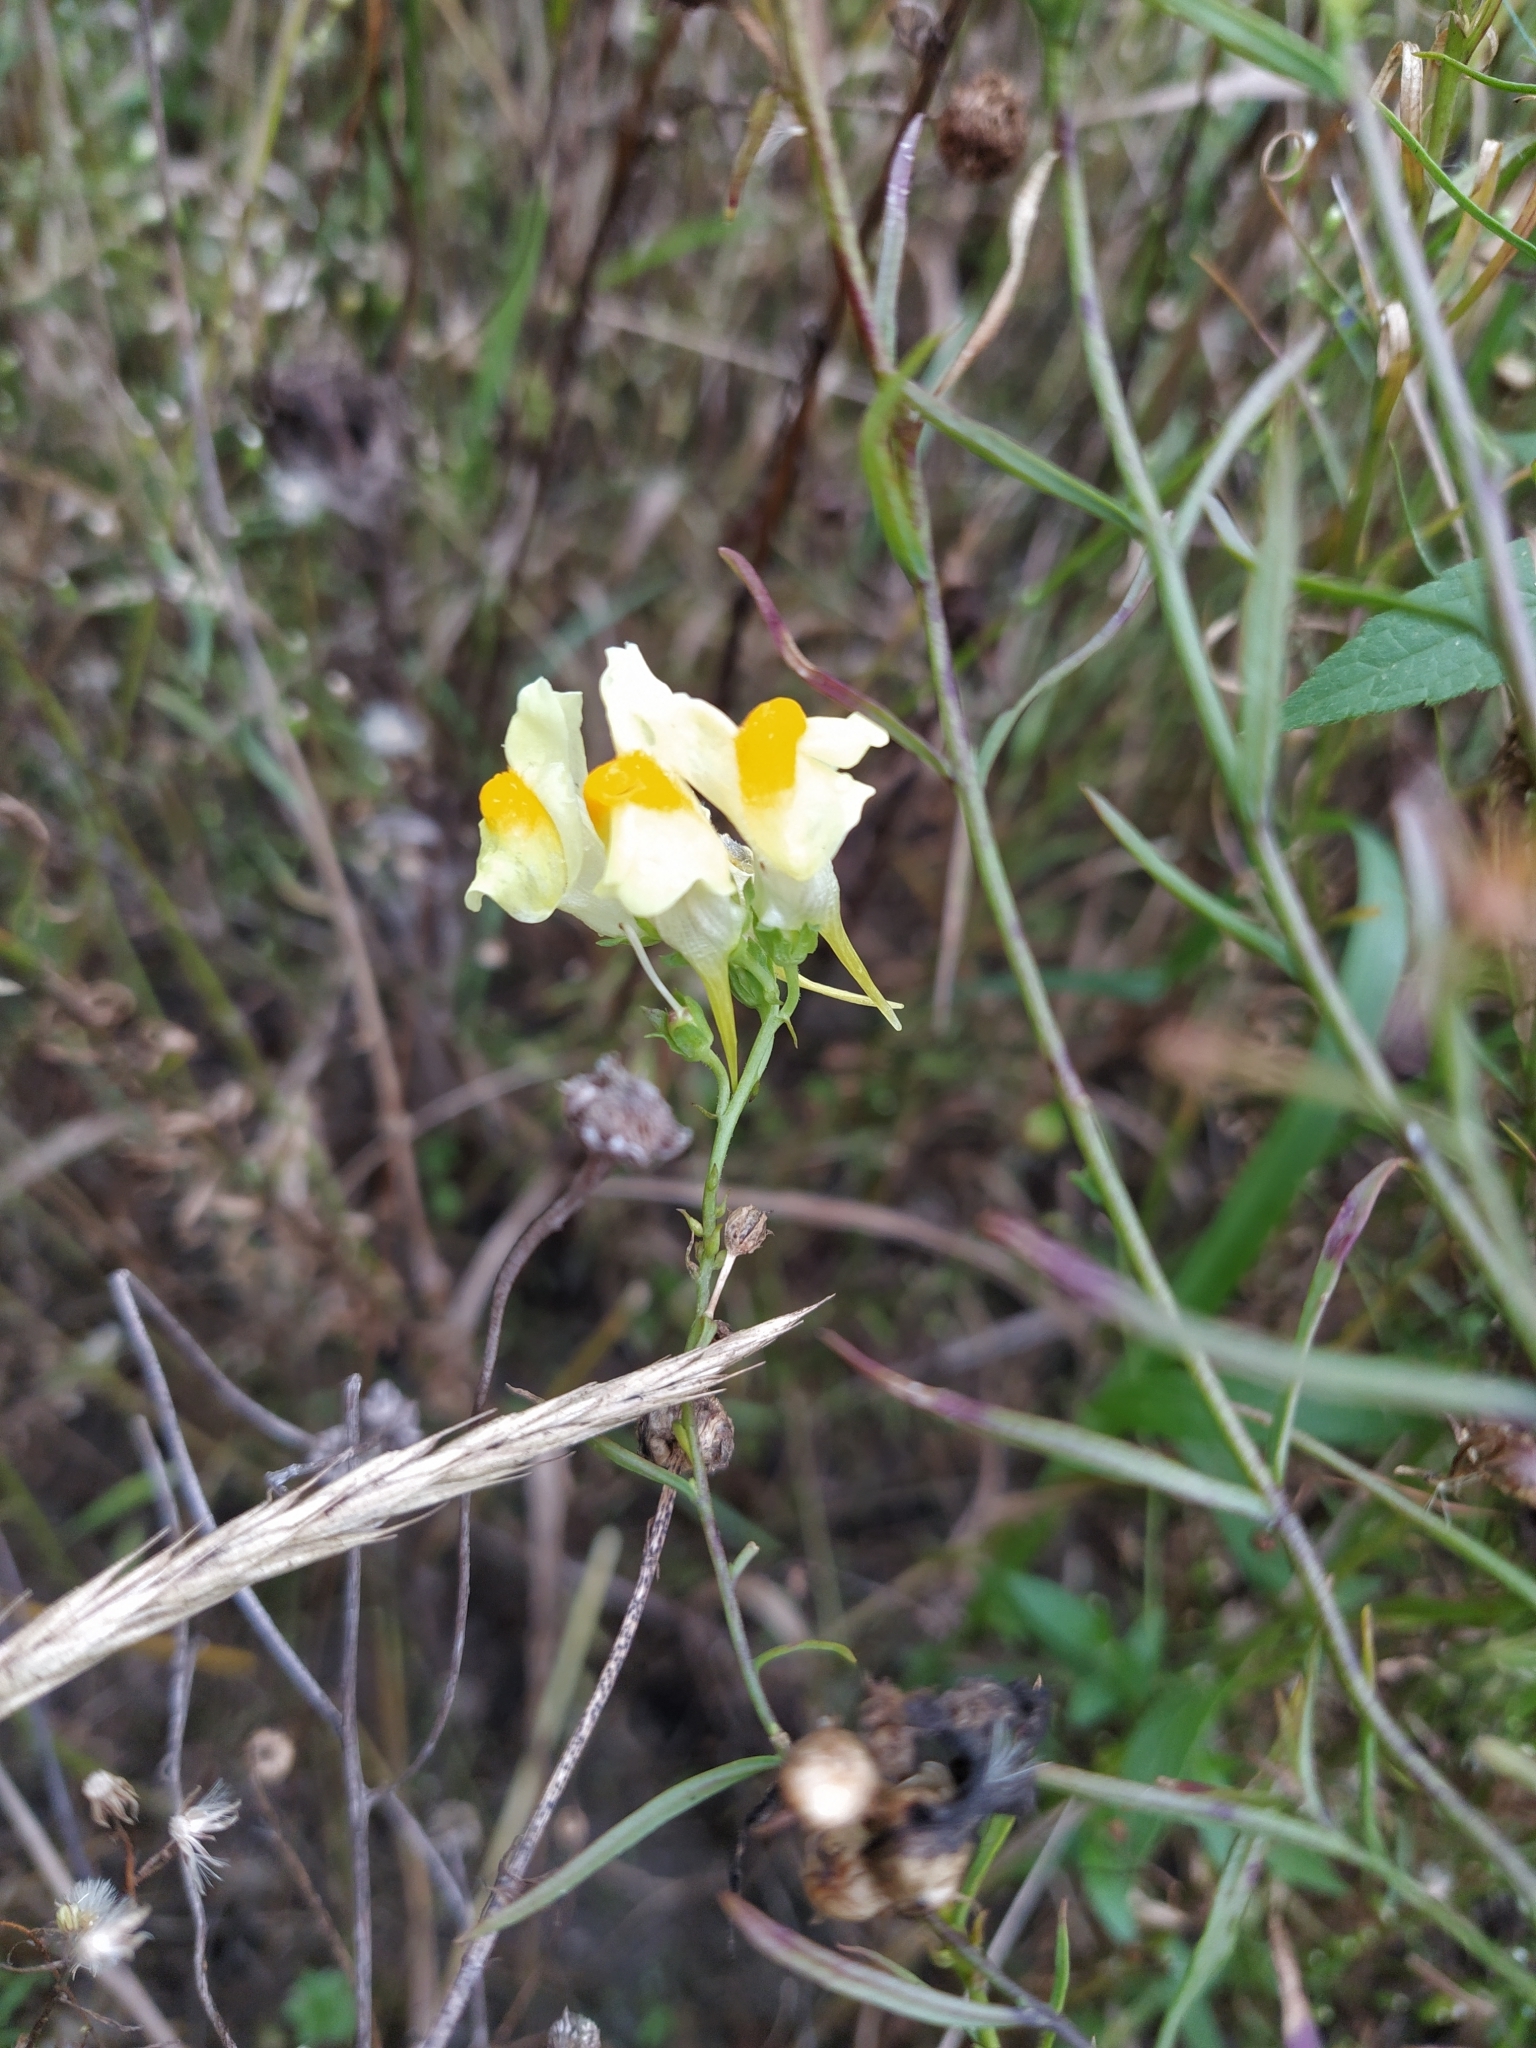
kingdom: Plantae
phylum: Tracheophyta
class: Magnoliopsida
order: Lamiales
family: Plantaginaceae
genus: Linaria
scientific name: Linaria vulgaris
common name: Butter and eggs
